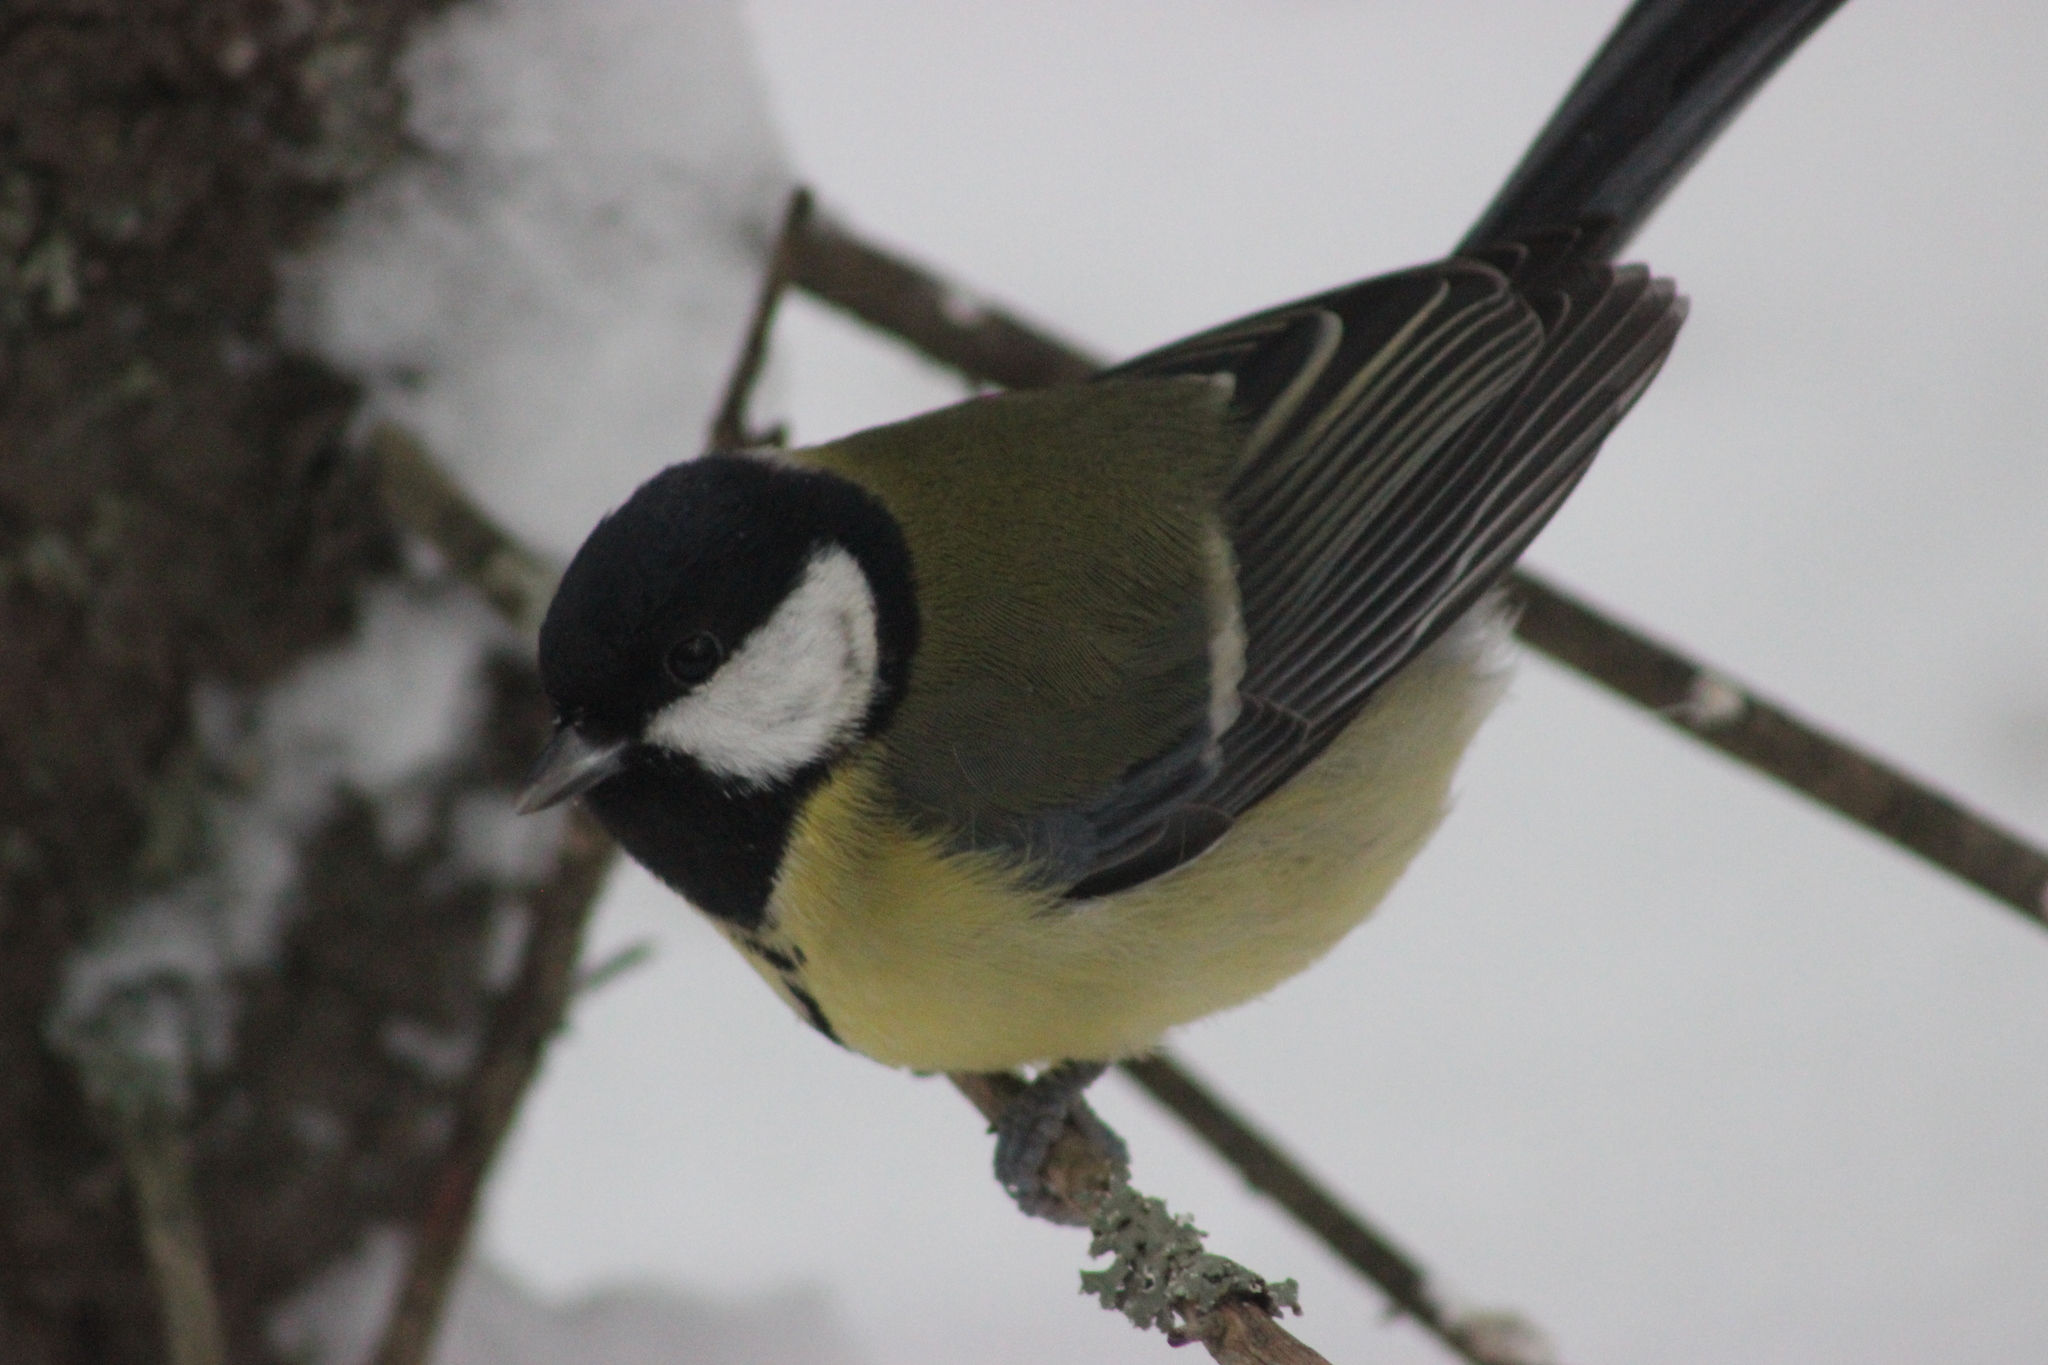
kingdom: Animalia
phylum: Chordata
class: Aves
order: Passeriformes
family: Paridae
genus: Parus
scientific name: Parus major
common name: Great tit
